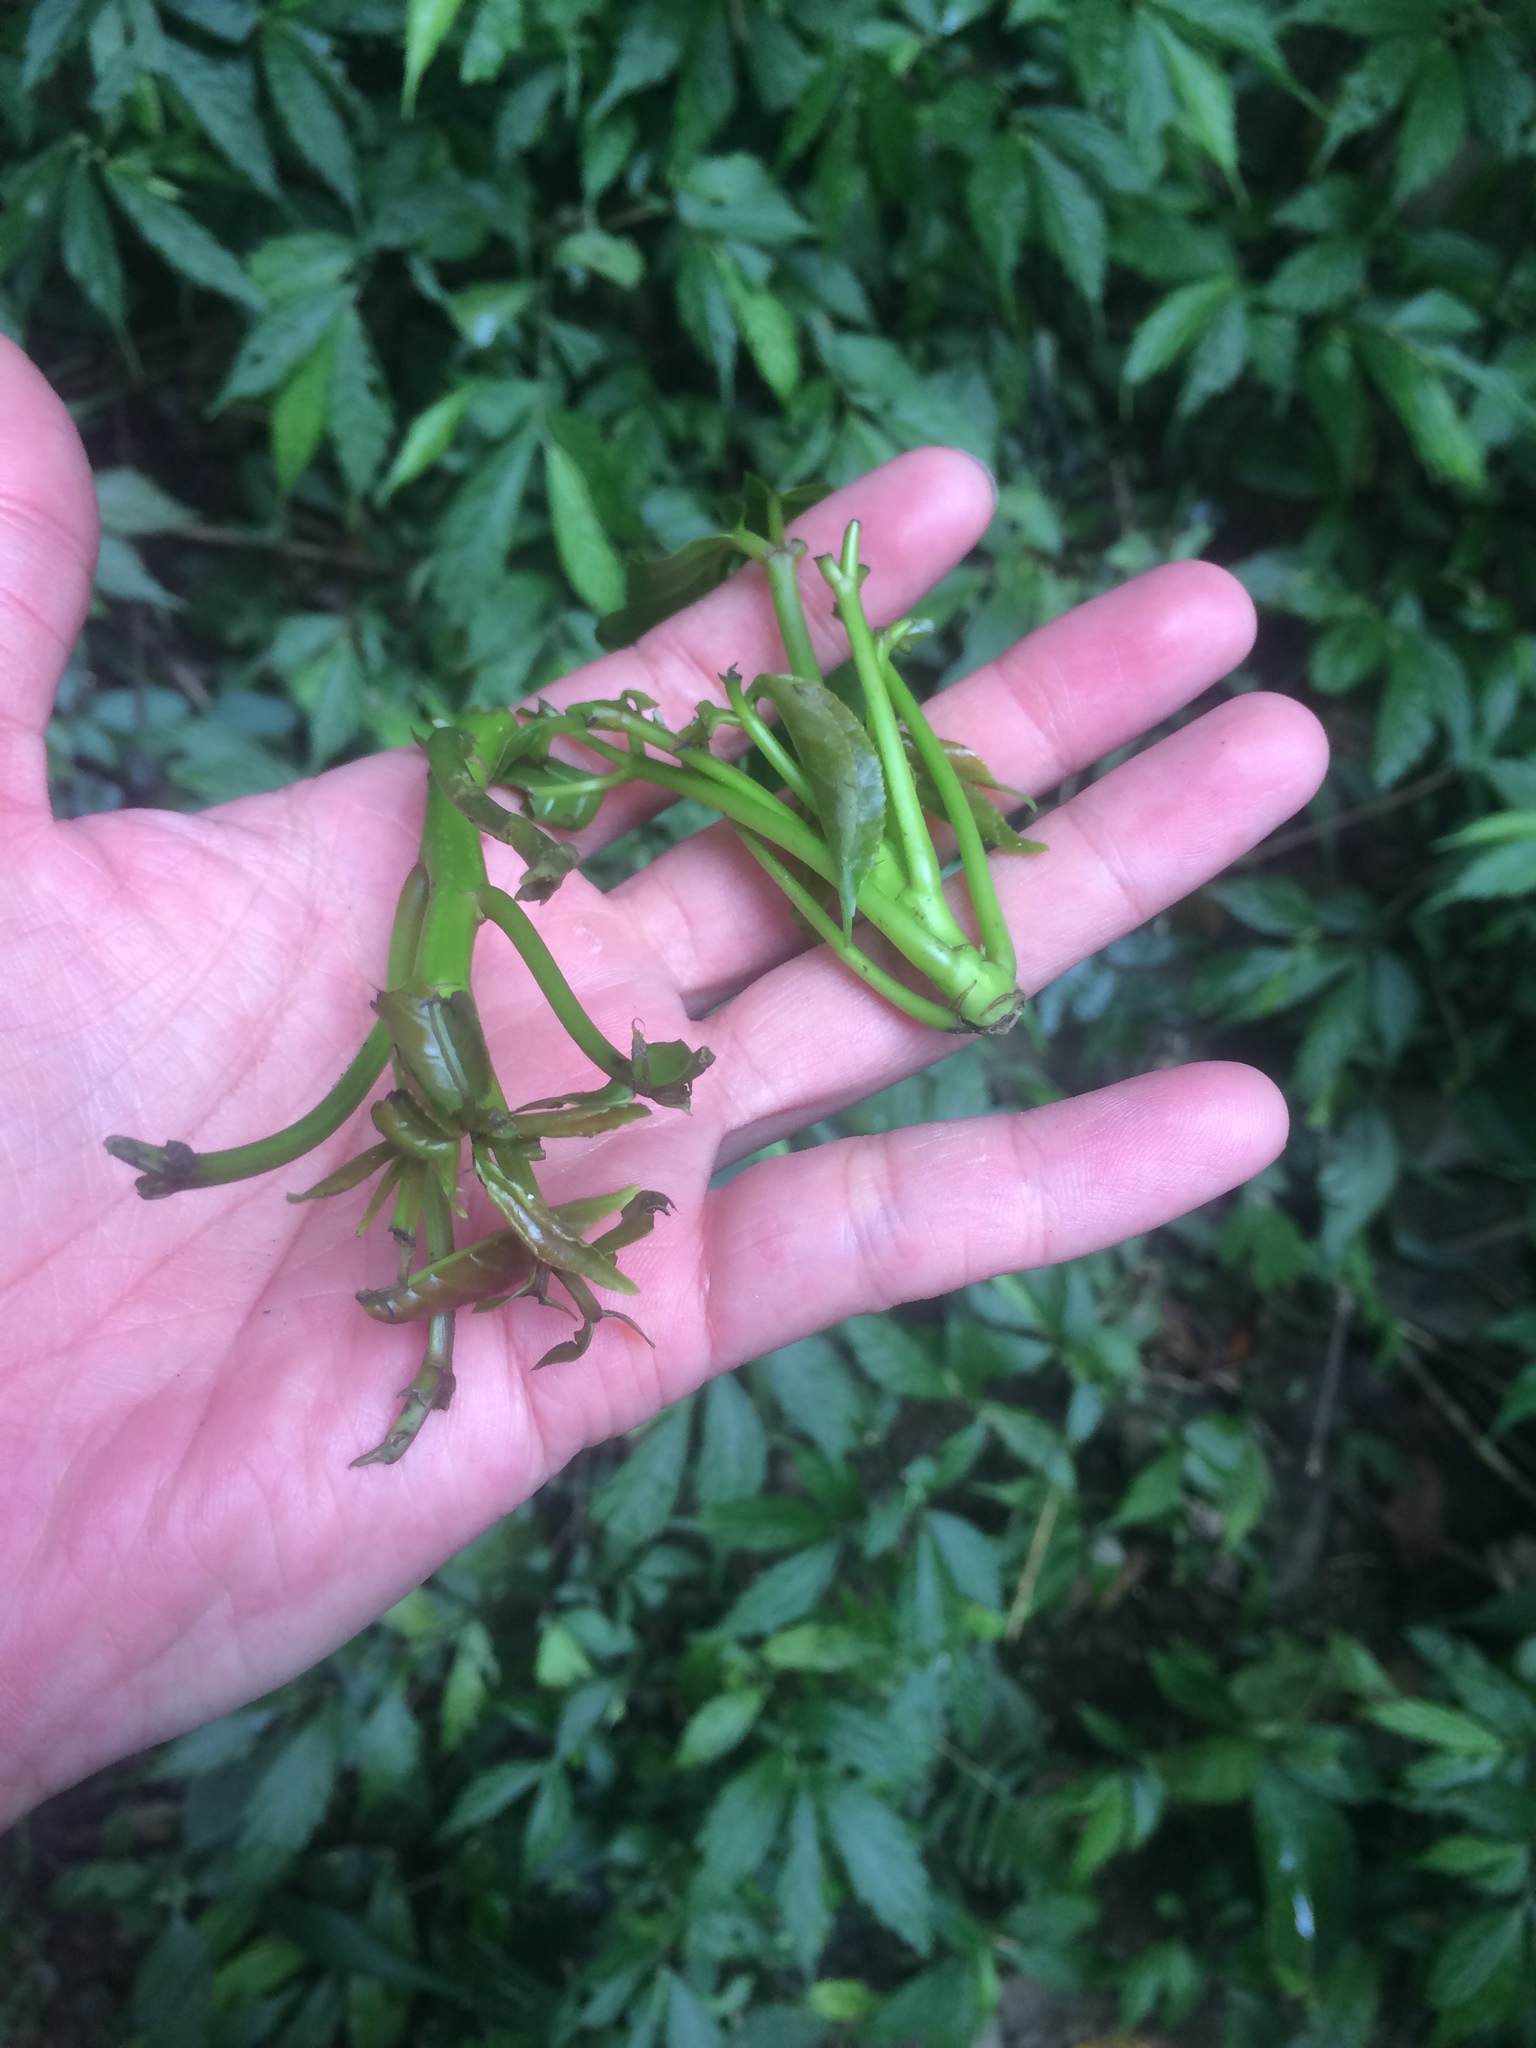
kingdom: Plantae
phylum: Tracheophyta
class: Magnoliopsida
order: Malpighiales
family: Phyllanthaceae
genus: Bischofia
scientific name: Bischofia javanica
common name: Javanese bishopwood
